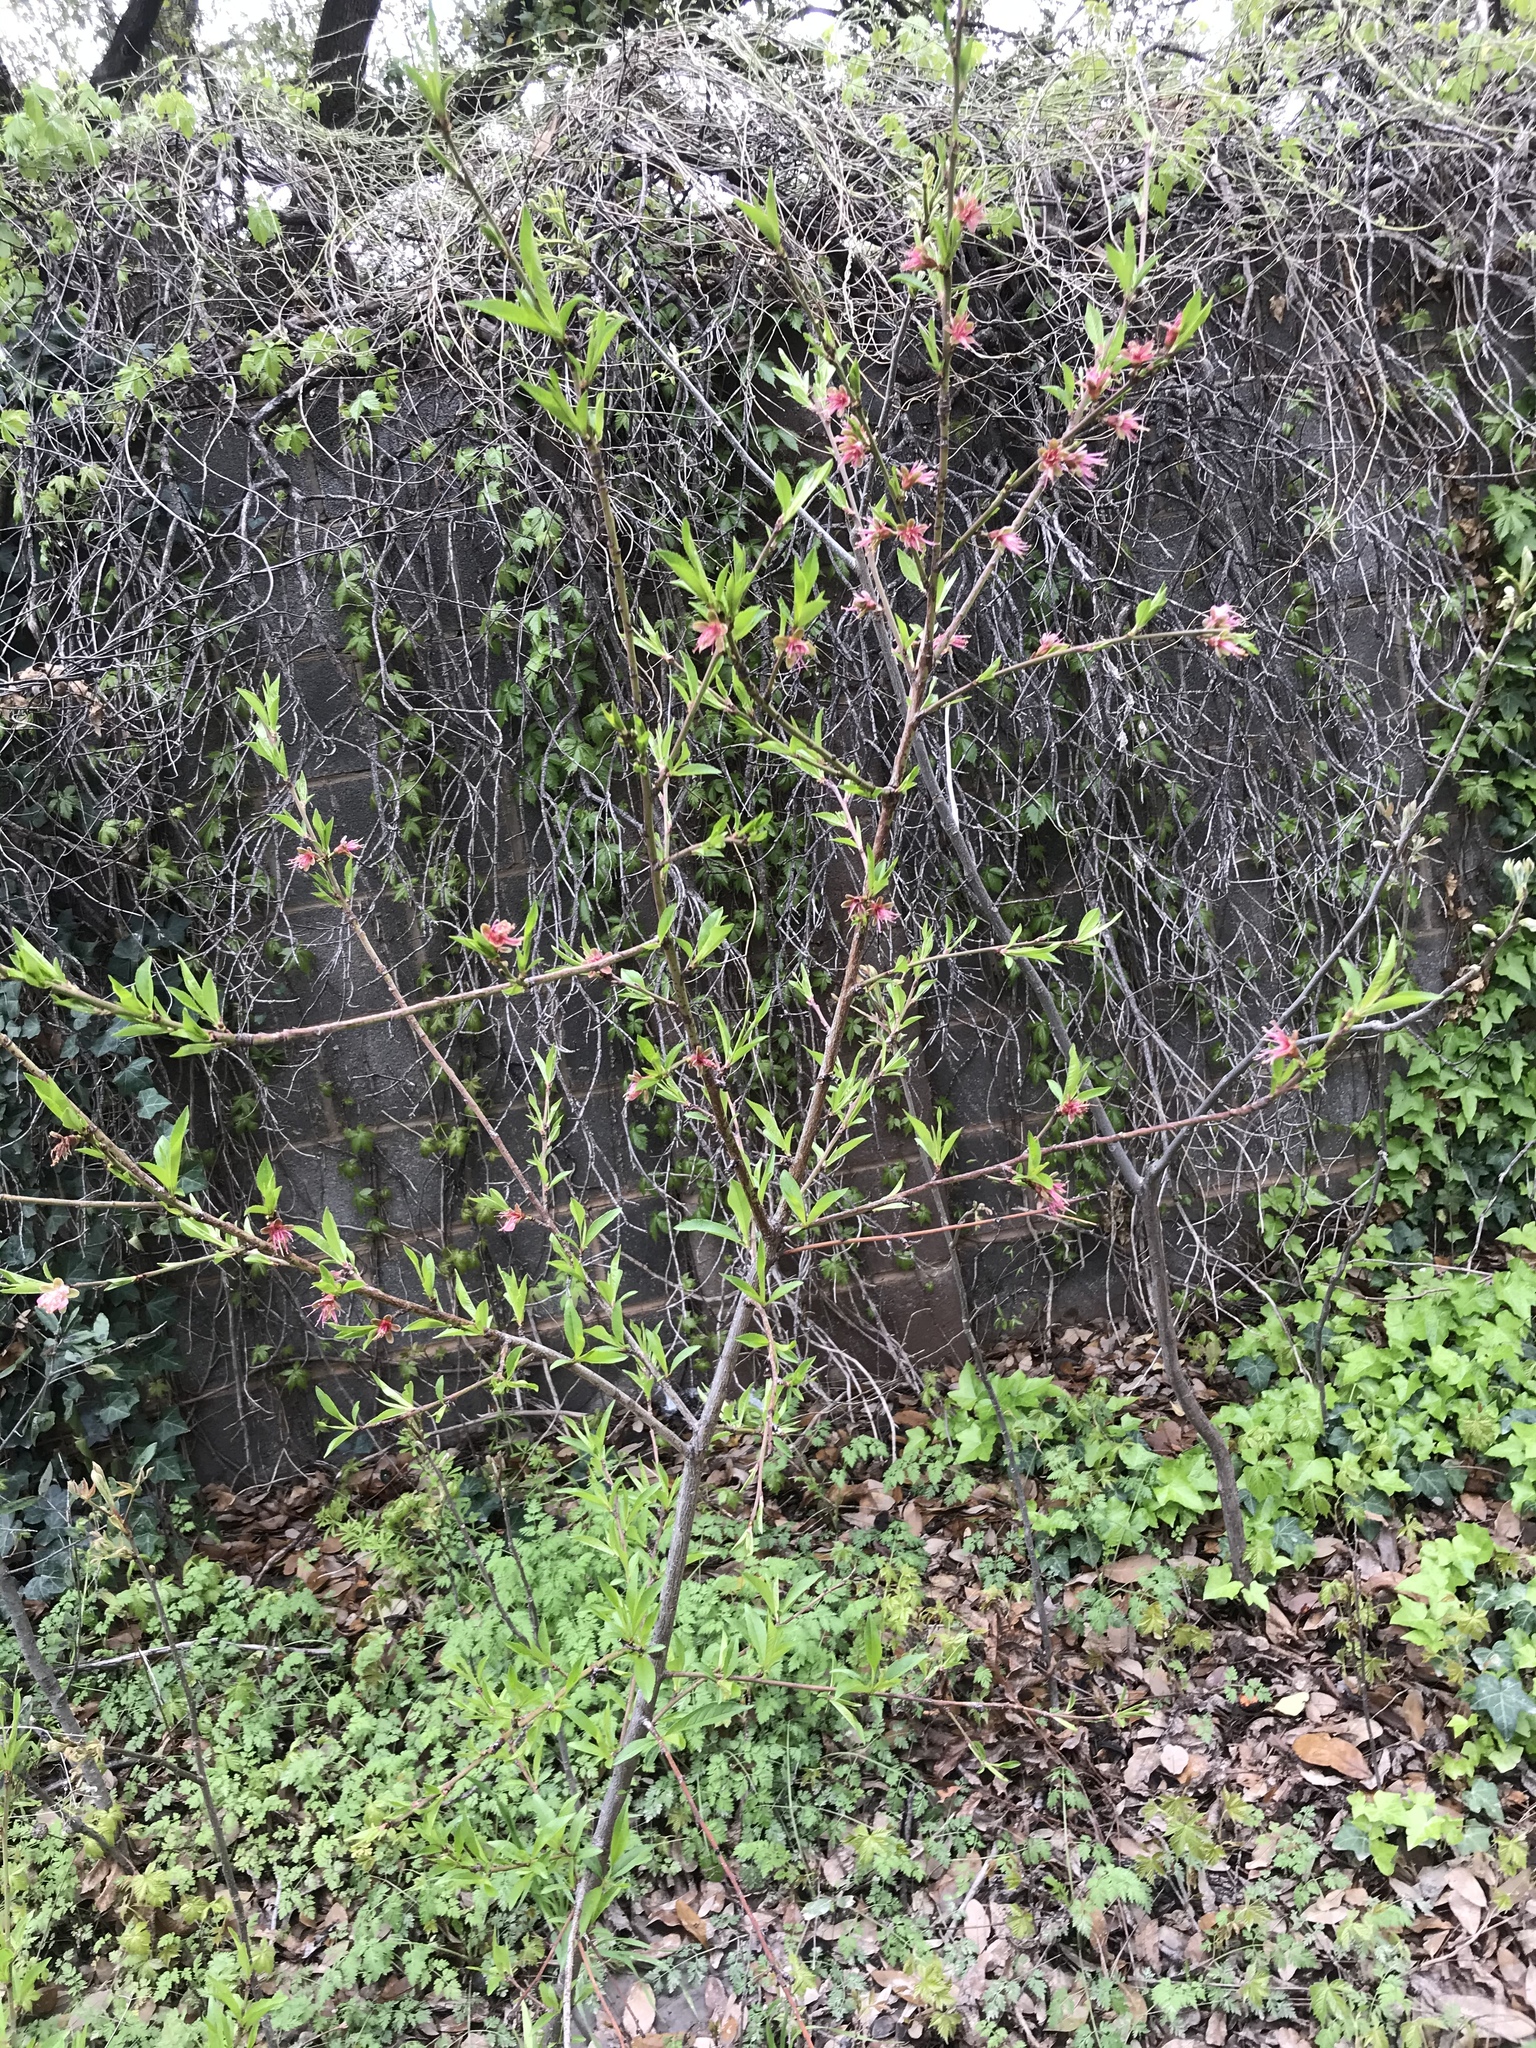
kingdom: Plantae
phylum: Tracheophyta
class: Magnoliopsida
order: Rosales
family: Rosaceae
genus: Prunus
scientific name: Prunus persica
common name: Peach
